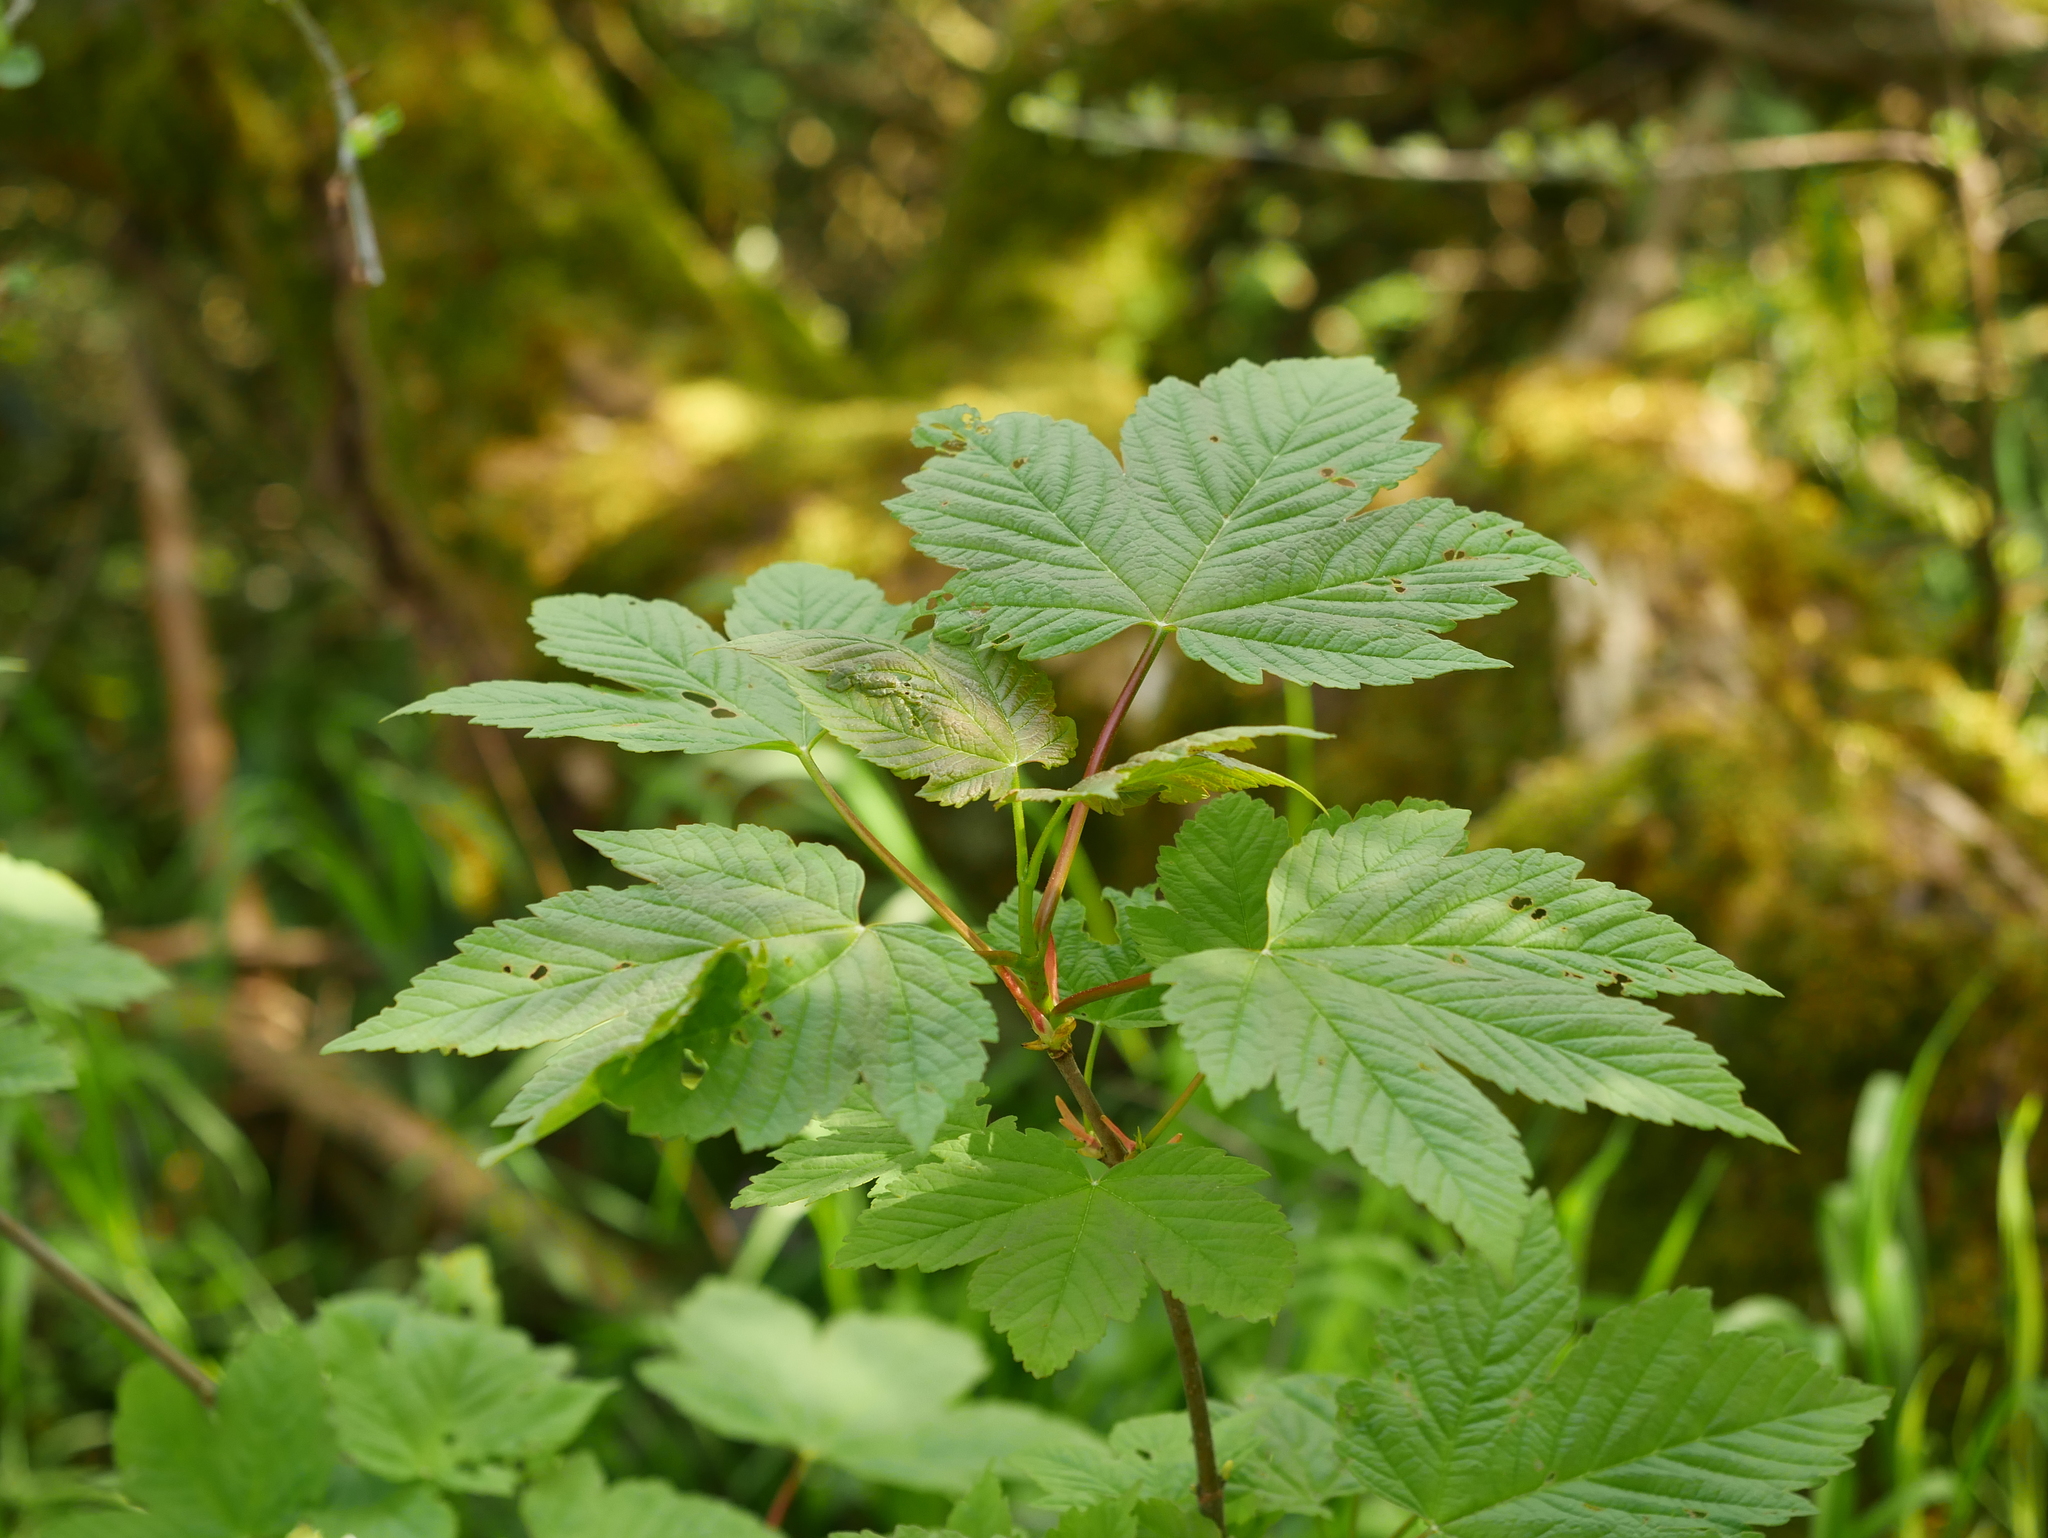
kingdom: Plantae
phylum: Tracheophyta
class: Magnoliopsida
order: Sapindales
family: Sapindaceae
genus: Acer
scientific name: Acer pseudoplatanus
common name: Sycamore
